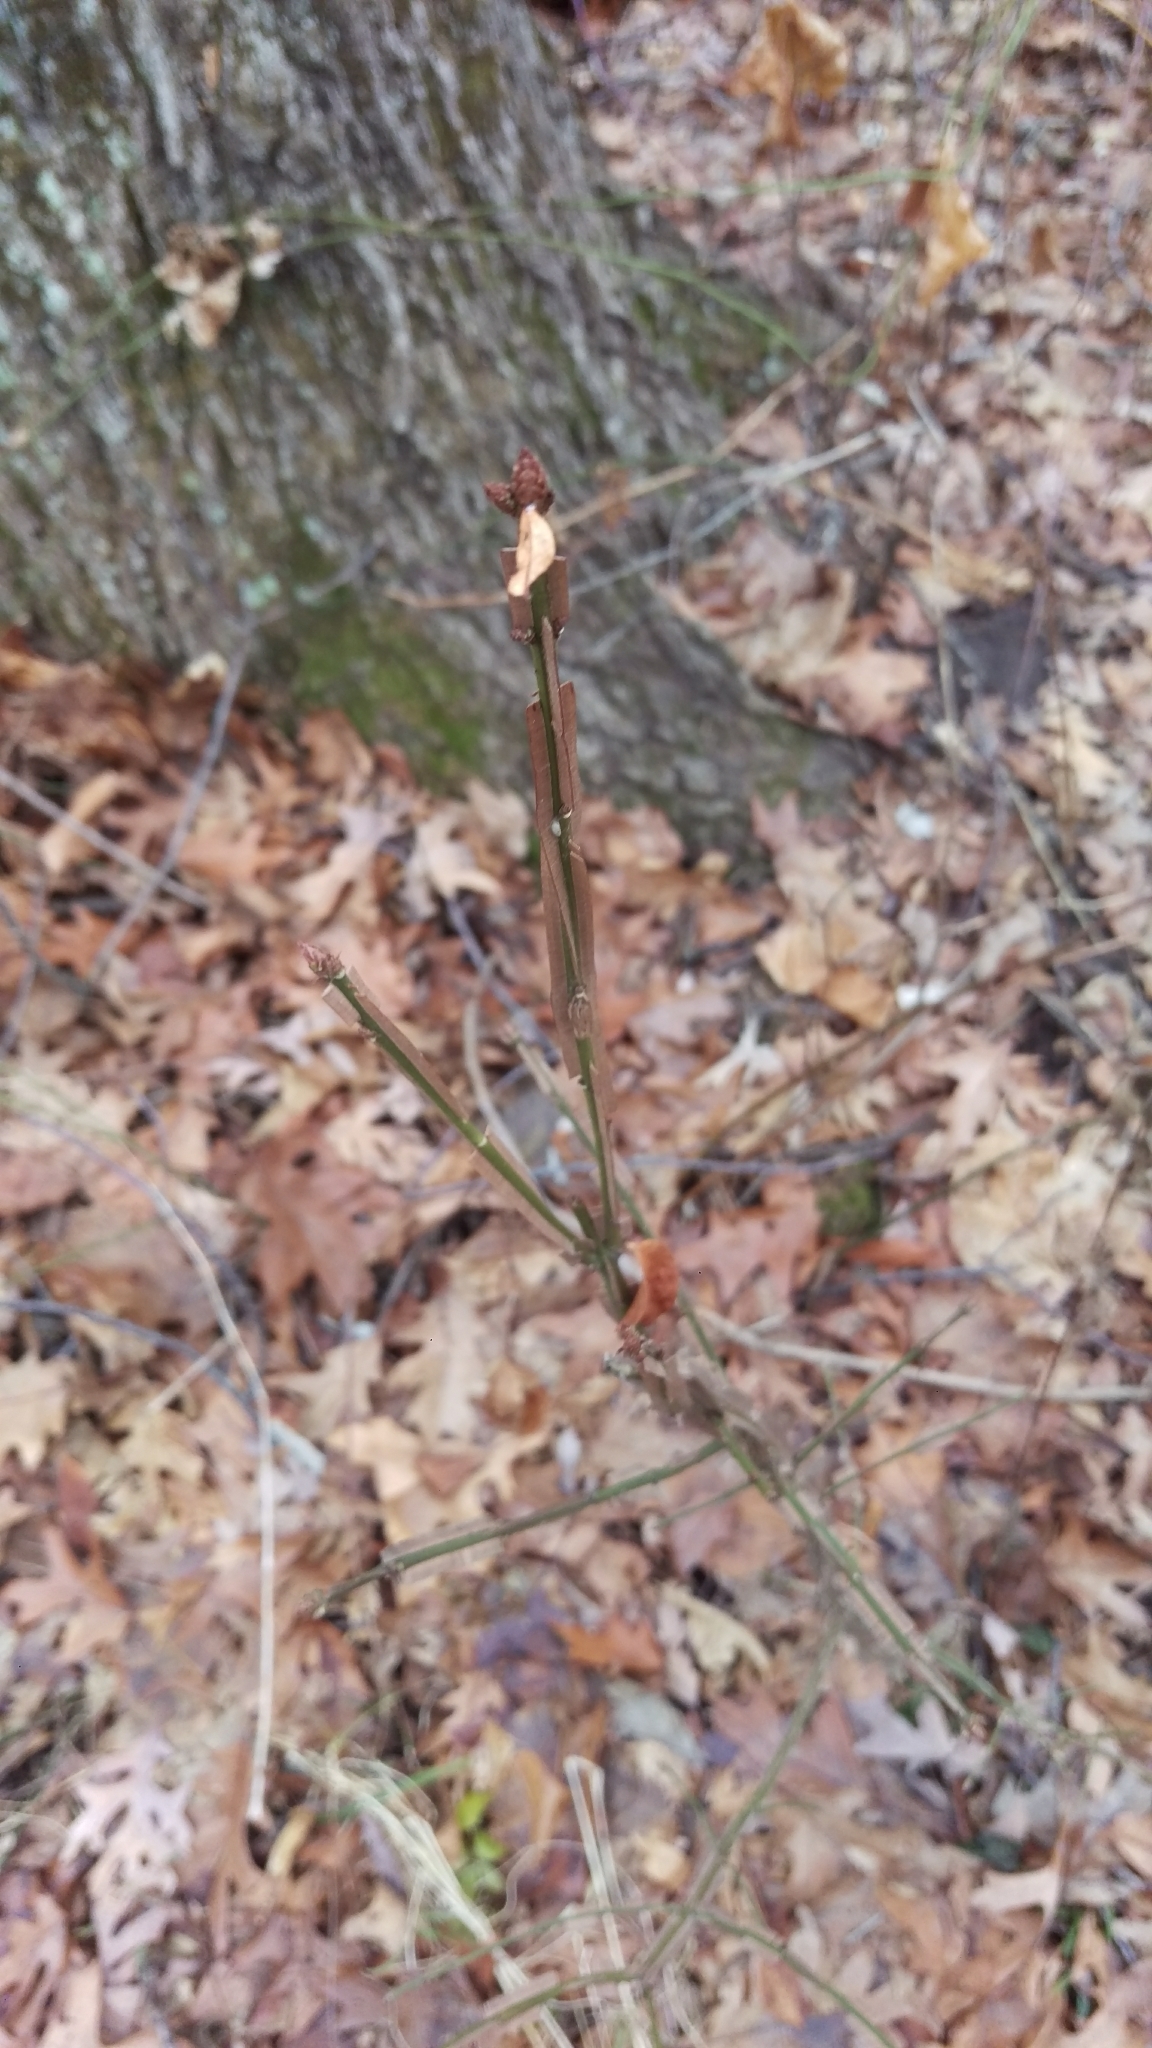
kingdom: Plantae
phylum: Tracheophyta
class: Magnoliopsida
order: Celastrales
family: Celastraceae
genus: Euonymus
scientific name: Euonymus alatus
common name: Winged euonymus
